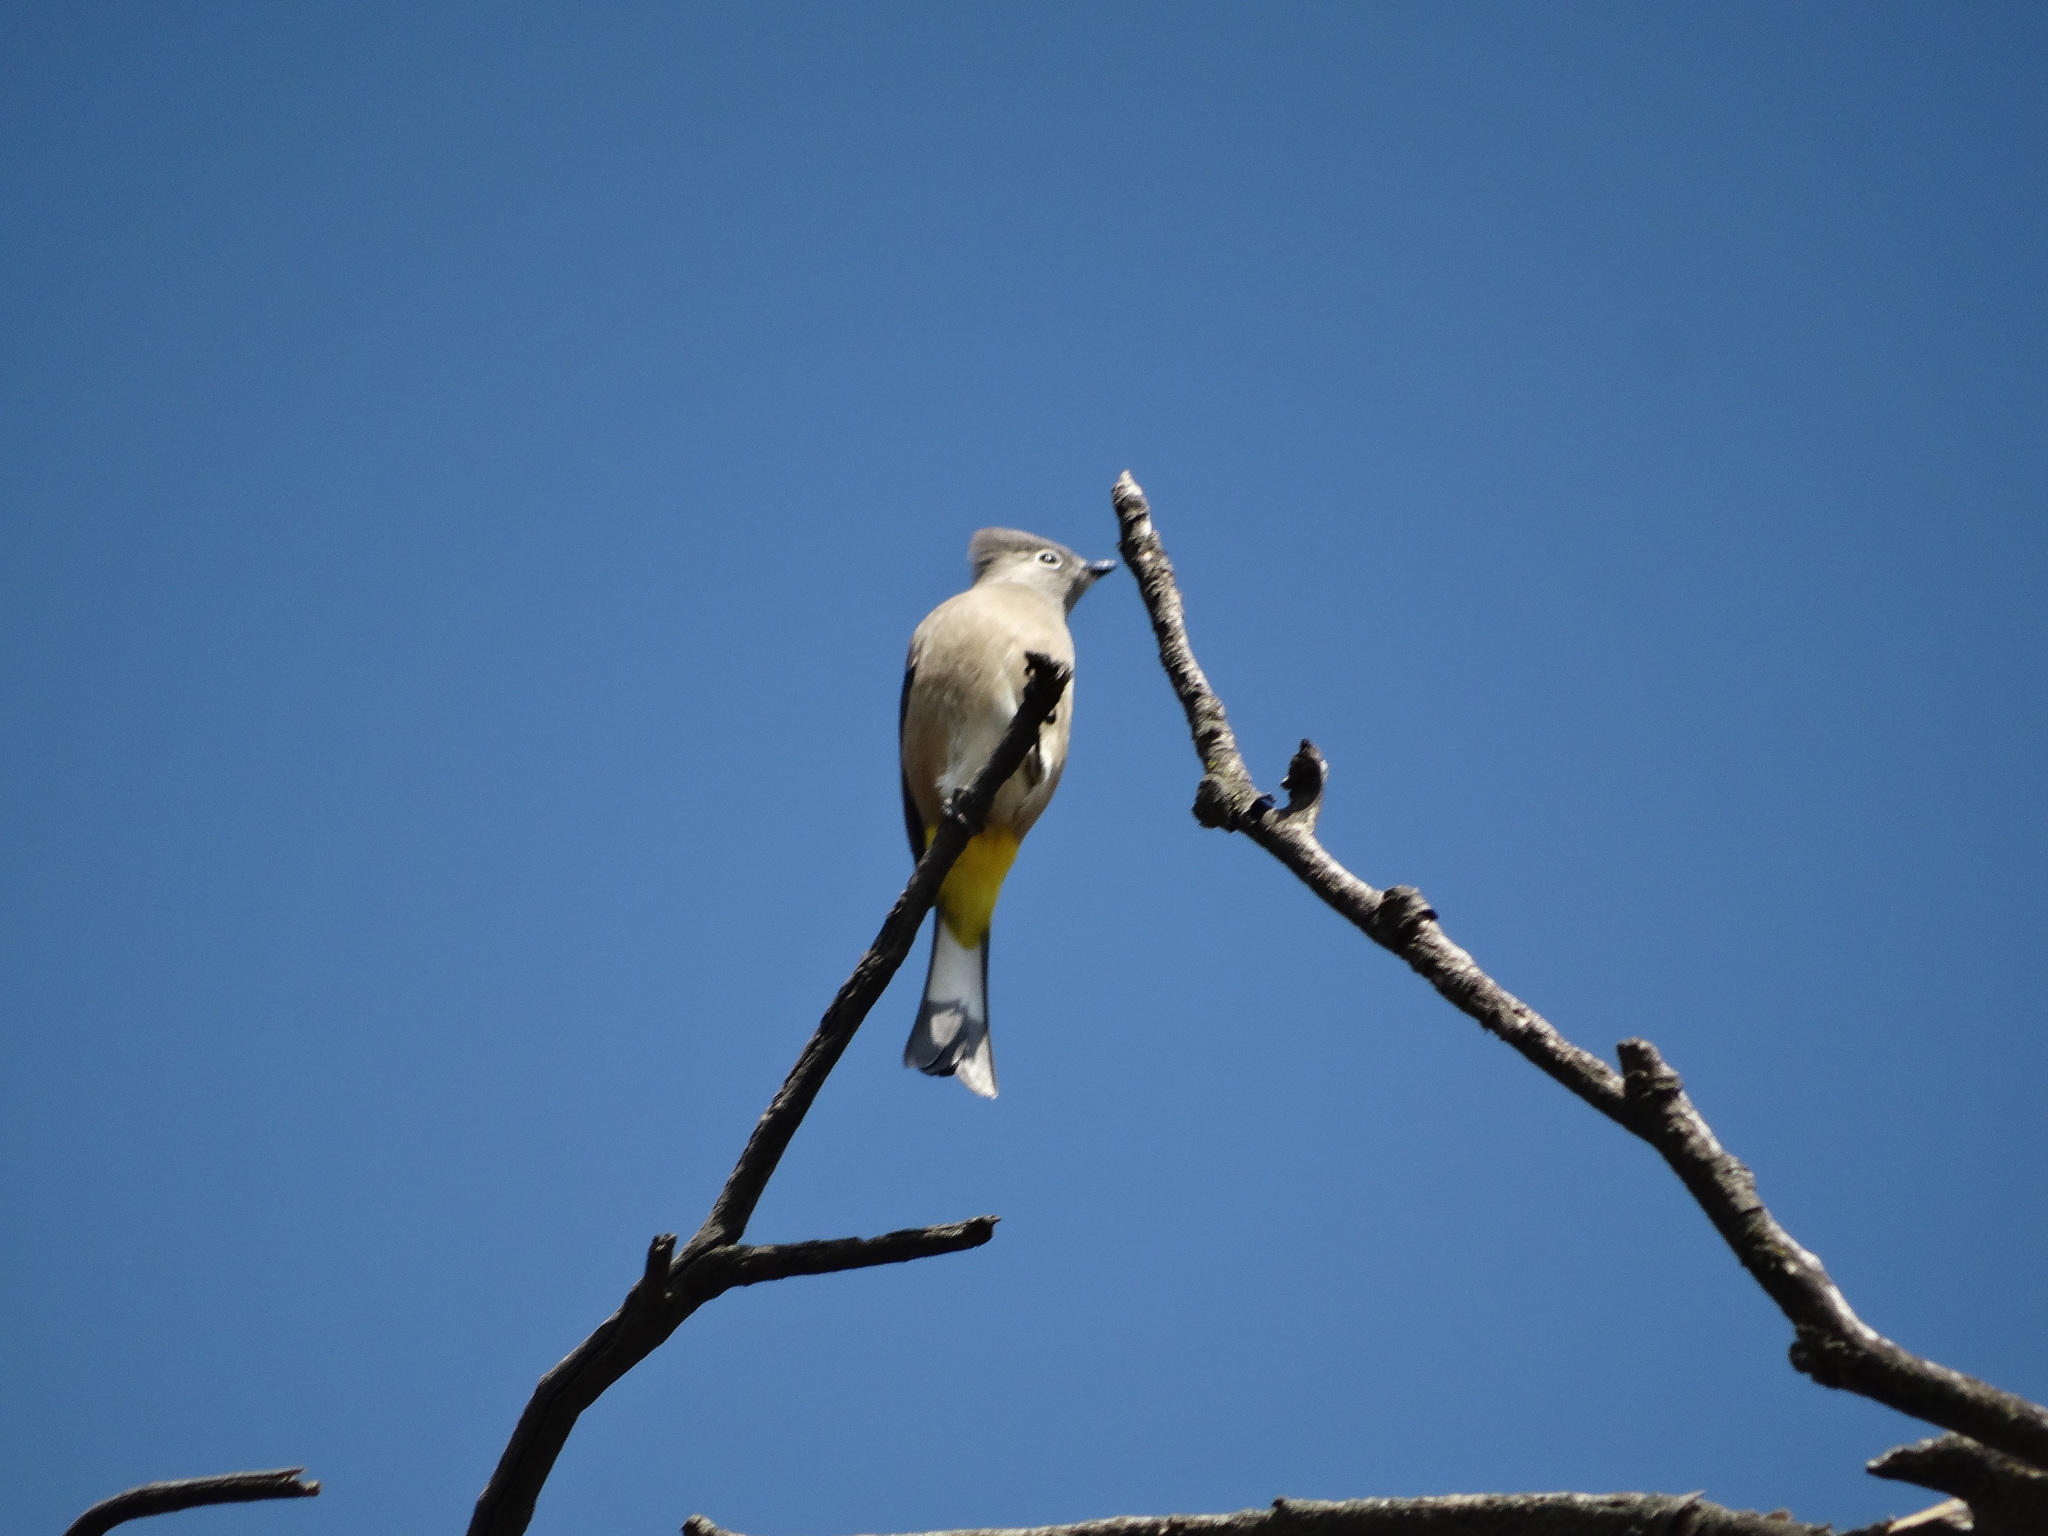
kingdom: Animalia
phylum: Chordata
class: Aves
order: Passeriformes
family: Ptilogonatidae
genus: Ptilogonys
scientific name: Ptilogonys cinereus
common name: Gray silky-flycatcher
